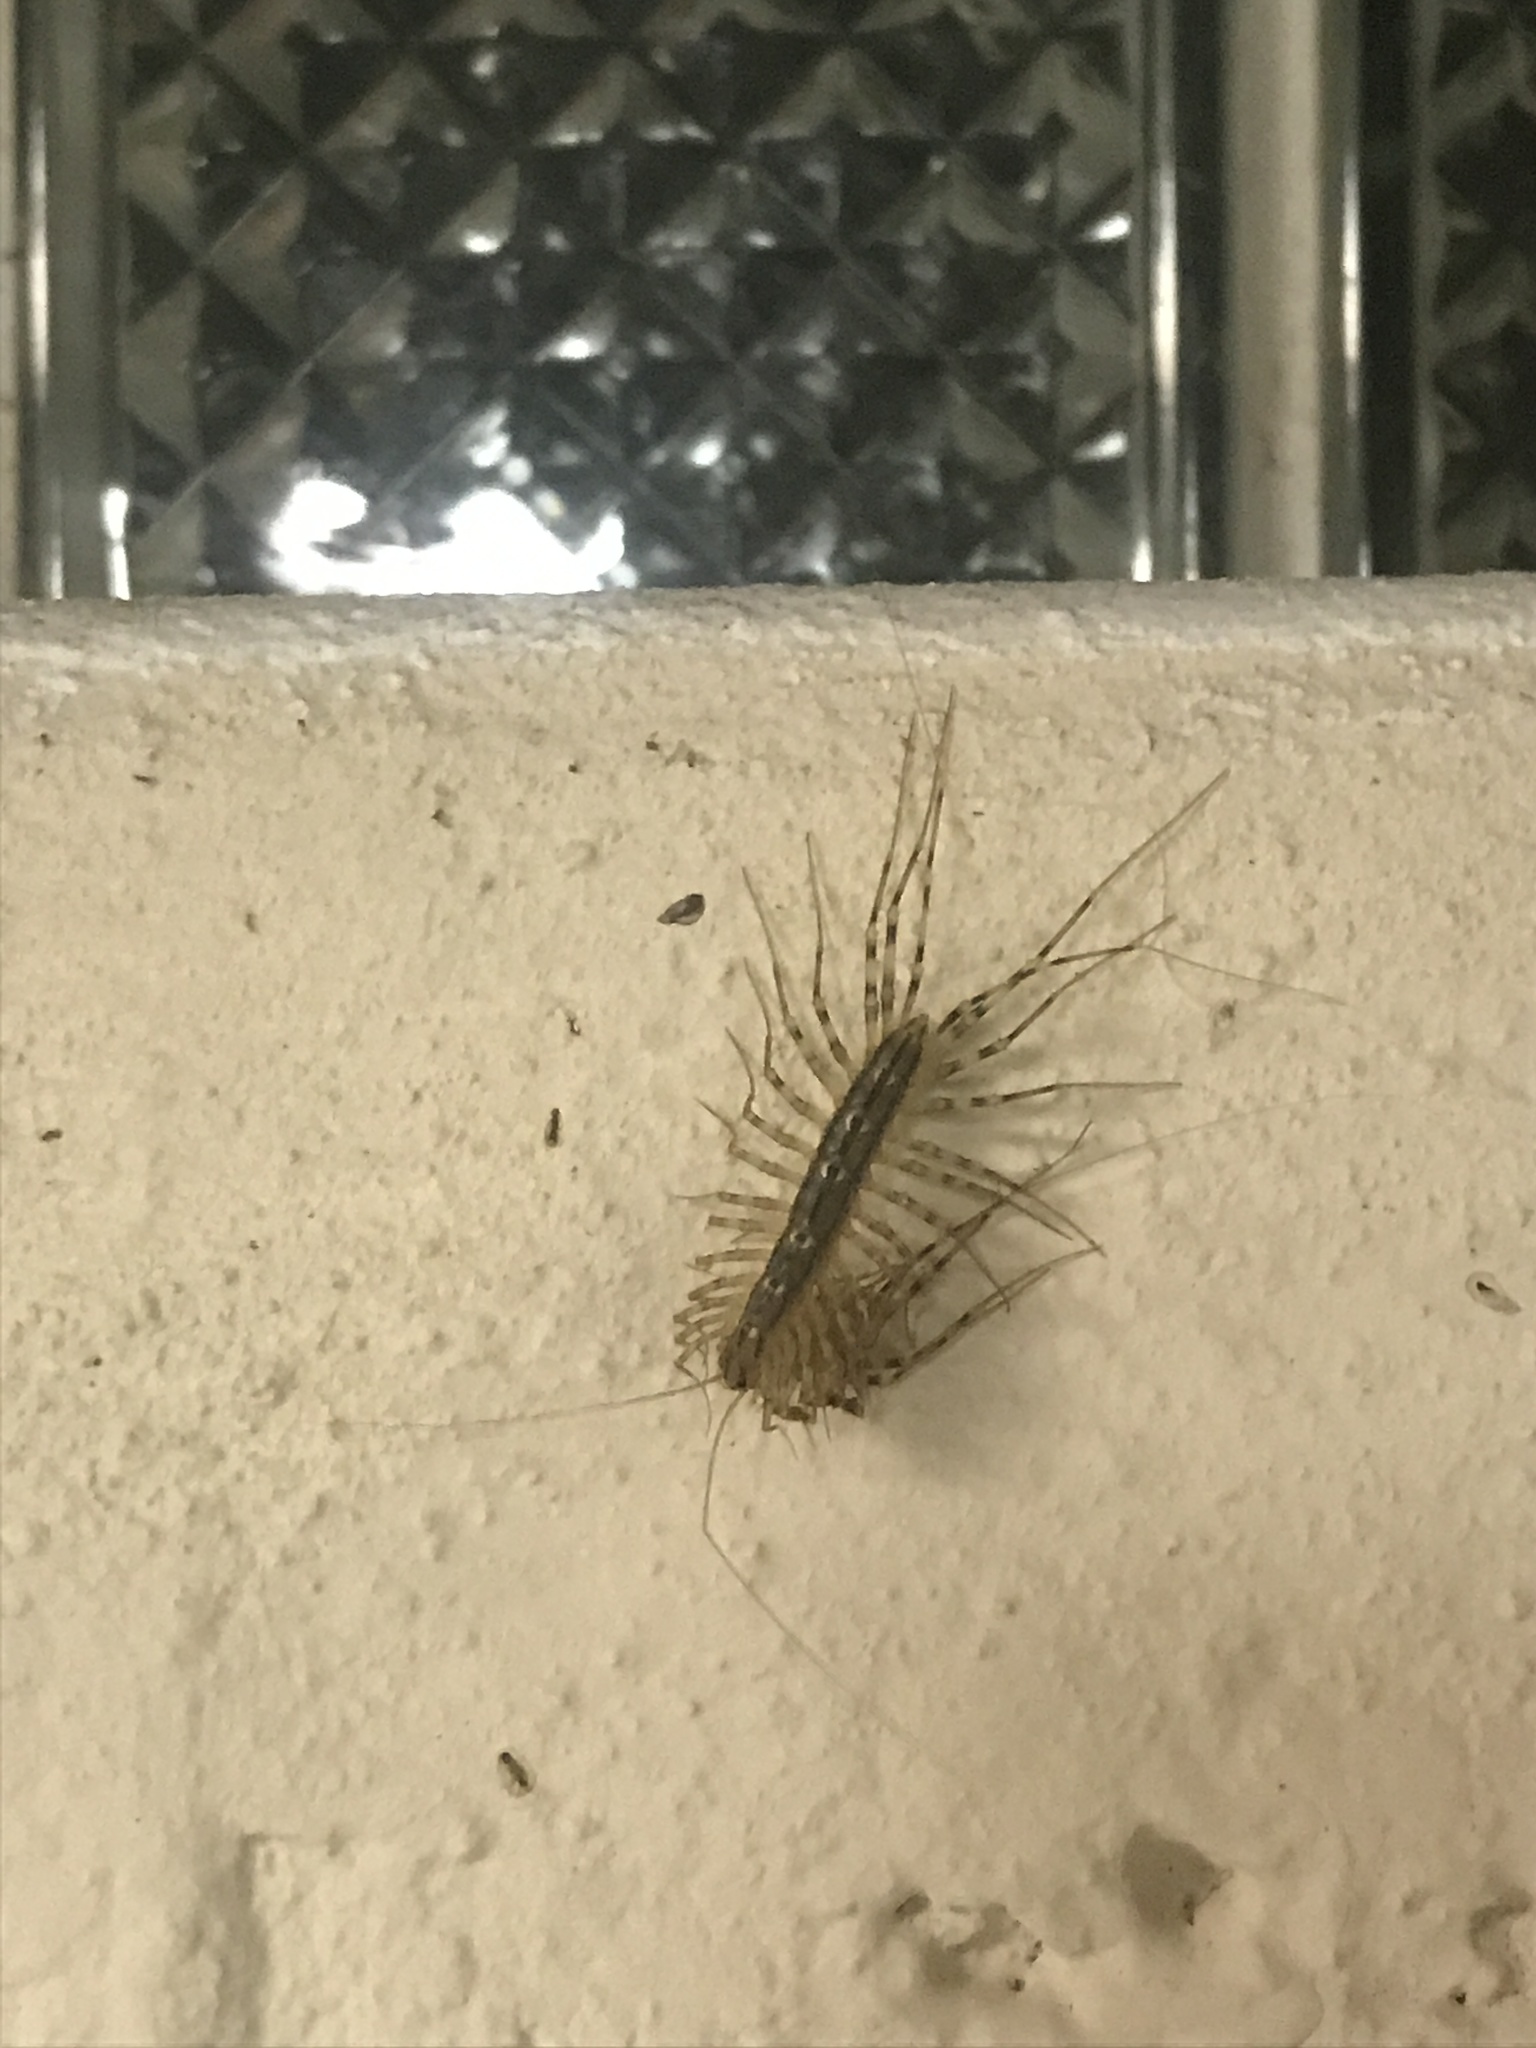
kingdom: Animalia
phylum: Arthropoda
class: Chilopoda
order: Scutigeromorpha
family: Scutigeridae
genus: Scutigera
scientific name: Scutigera coleoptrata
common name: House centipede
